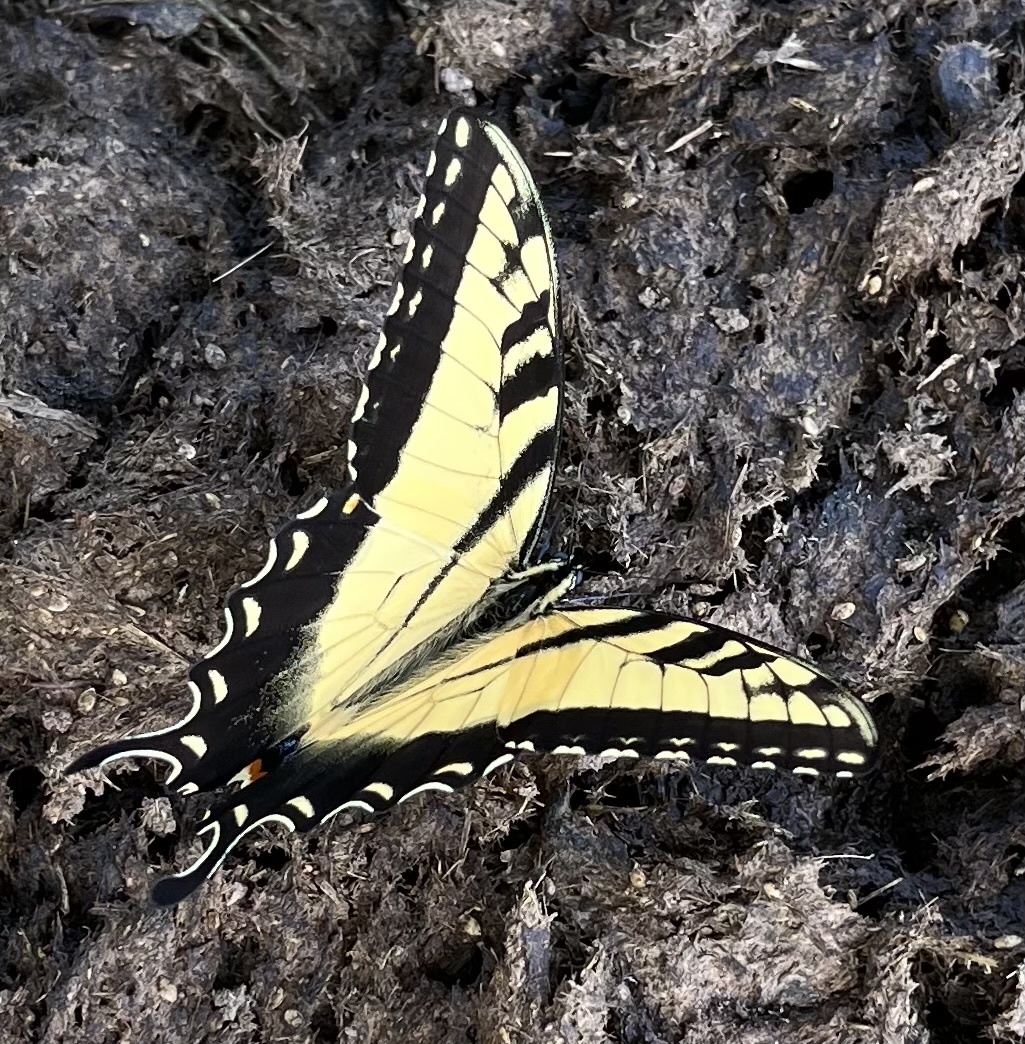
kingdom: Animalia
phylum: Arthropoda
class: Insecta
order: Lepidoptera
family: Papilionidae
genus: Papilio
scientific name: Papilio glaucus
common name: Tiger swallowtail
